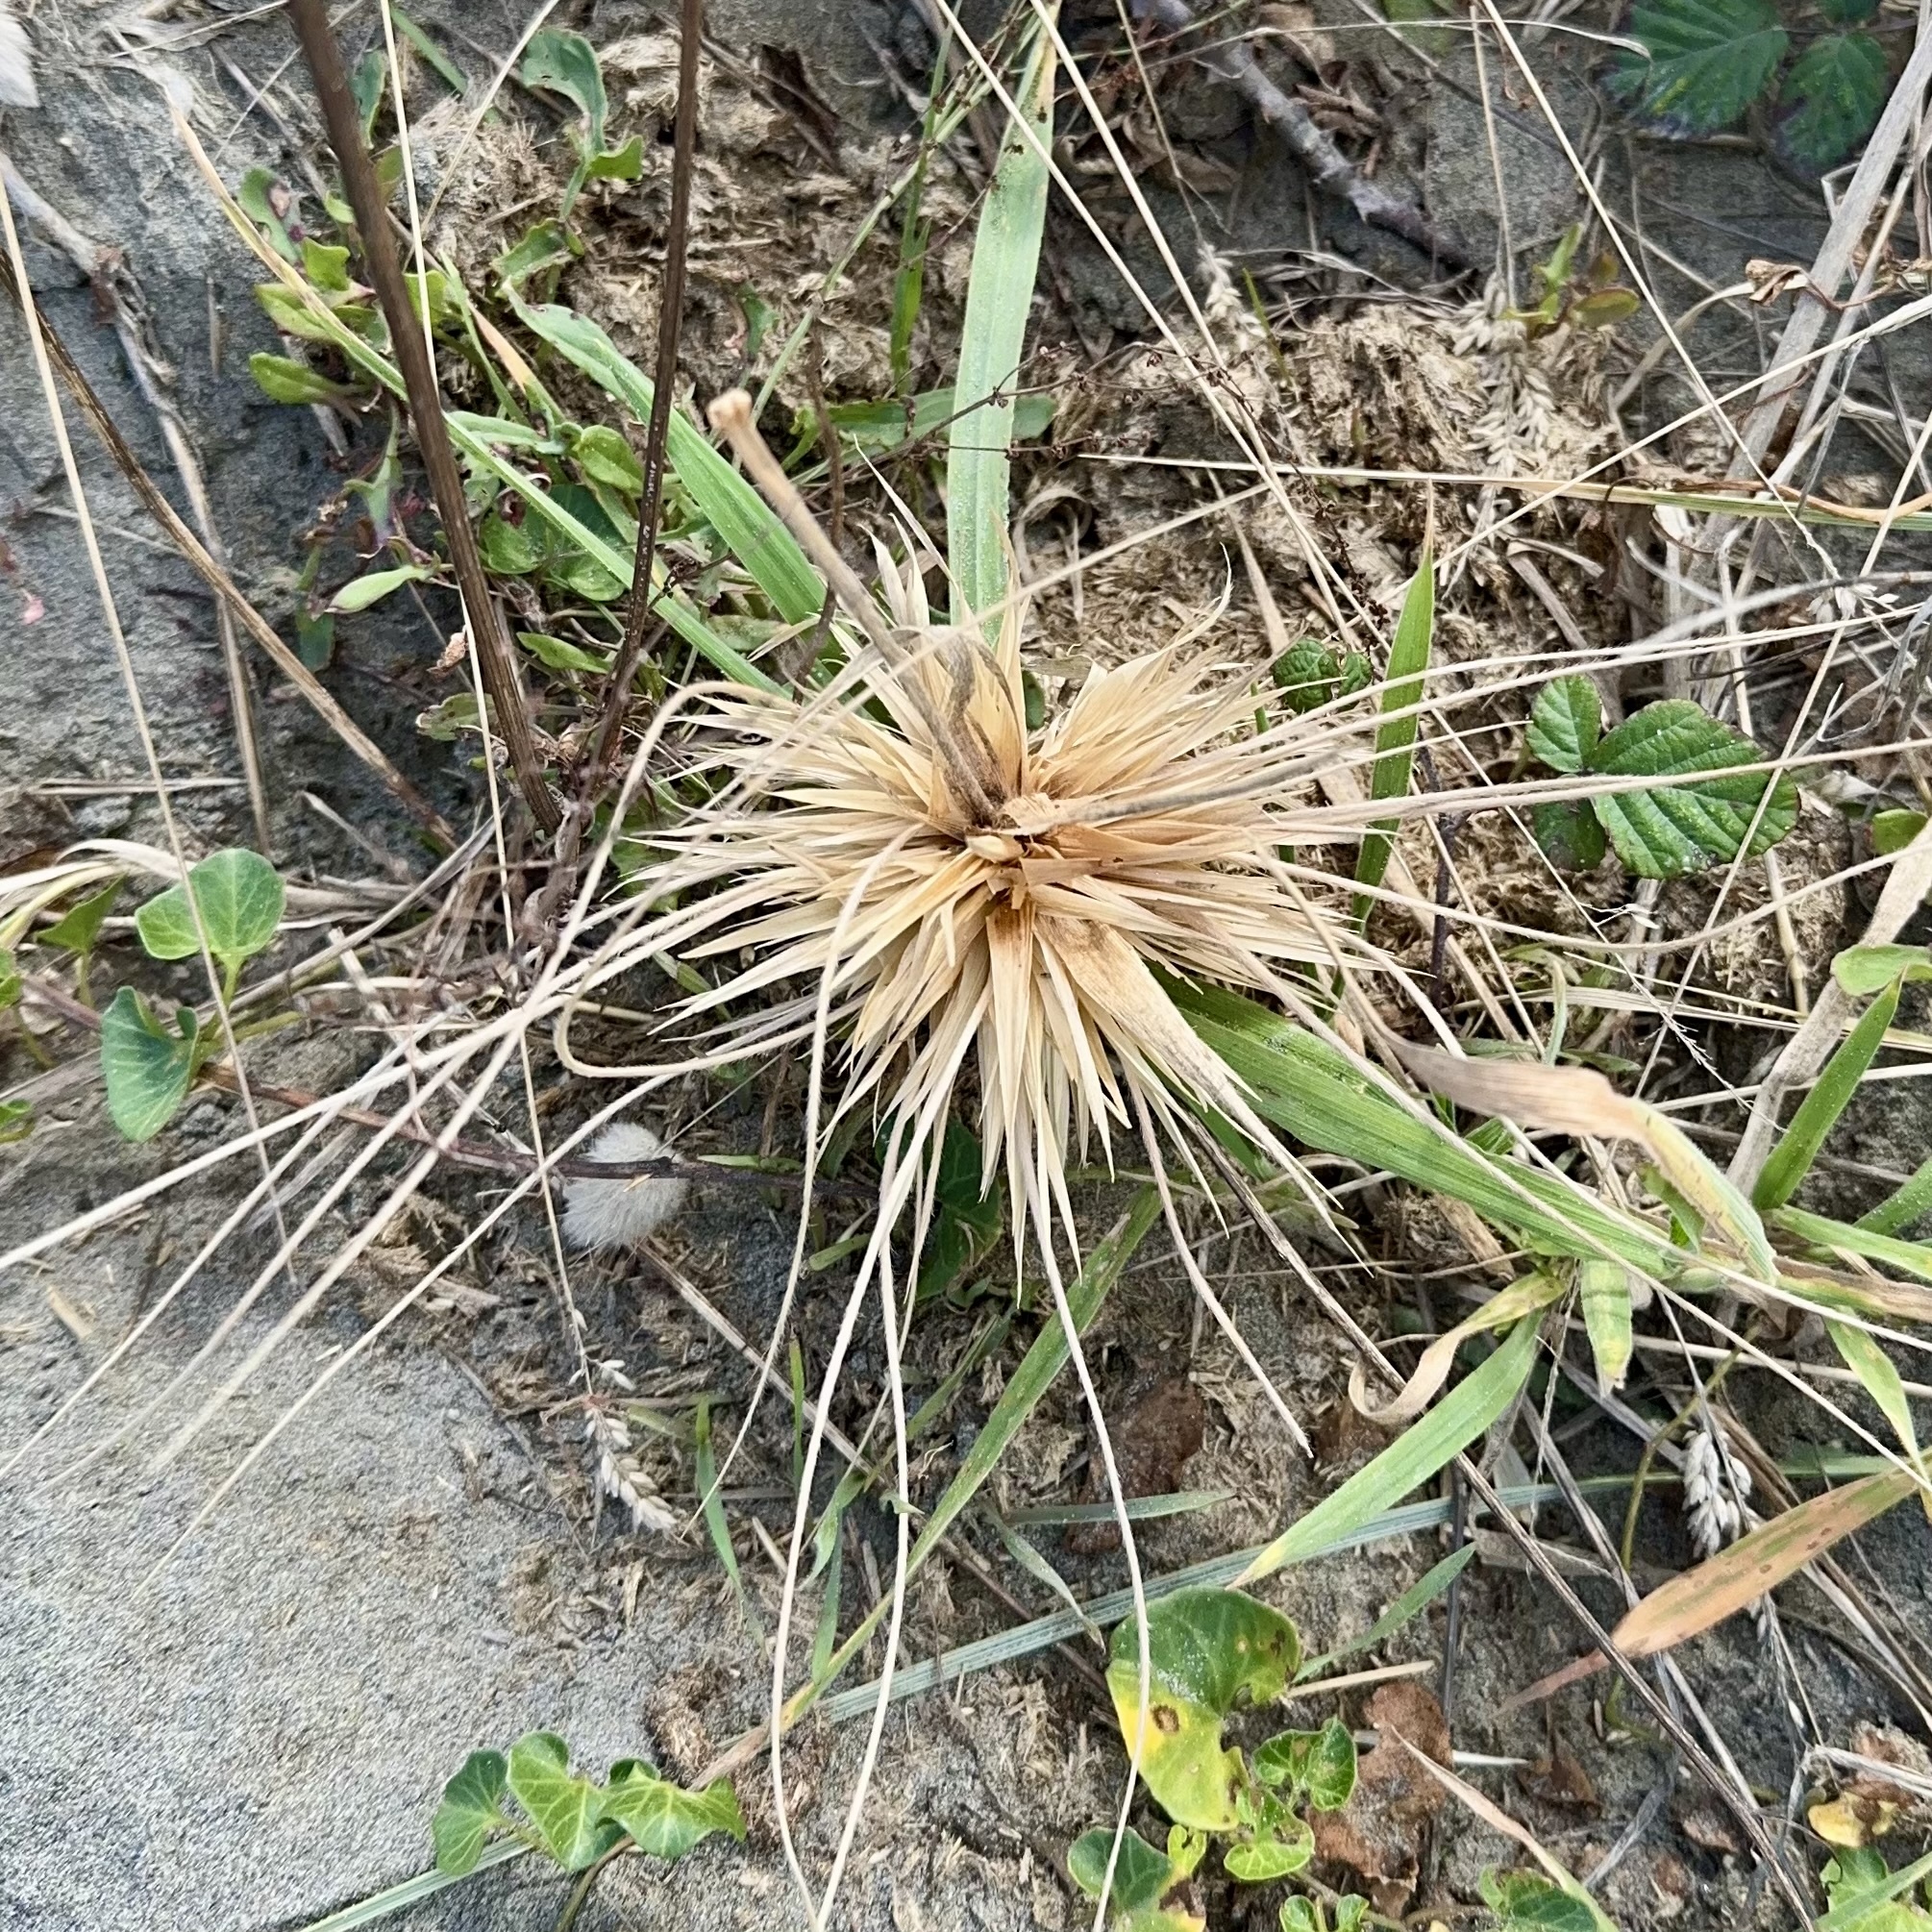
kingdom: Plantae
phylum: Tracheophyta
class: Liliopsida
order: Poales
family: Poaceae
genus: Spinifex
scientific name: Spinifex sericeus
